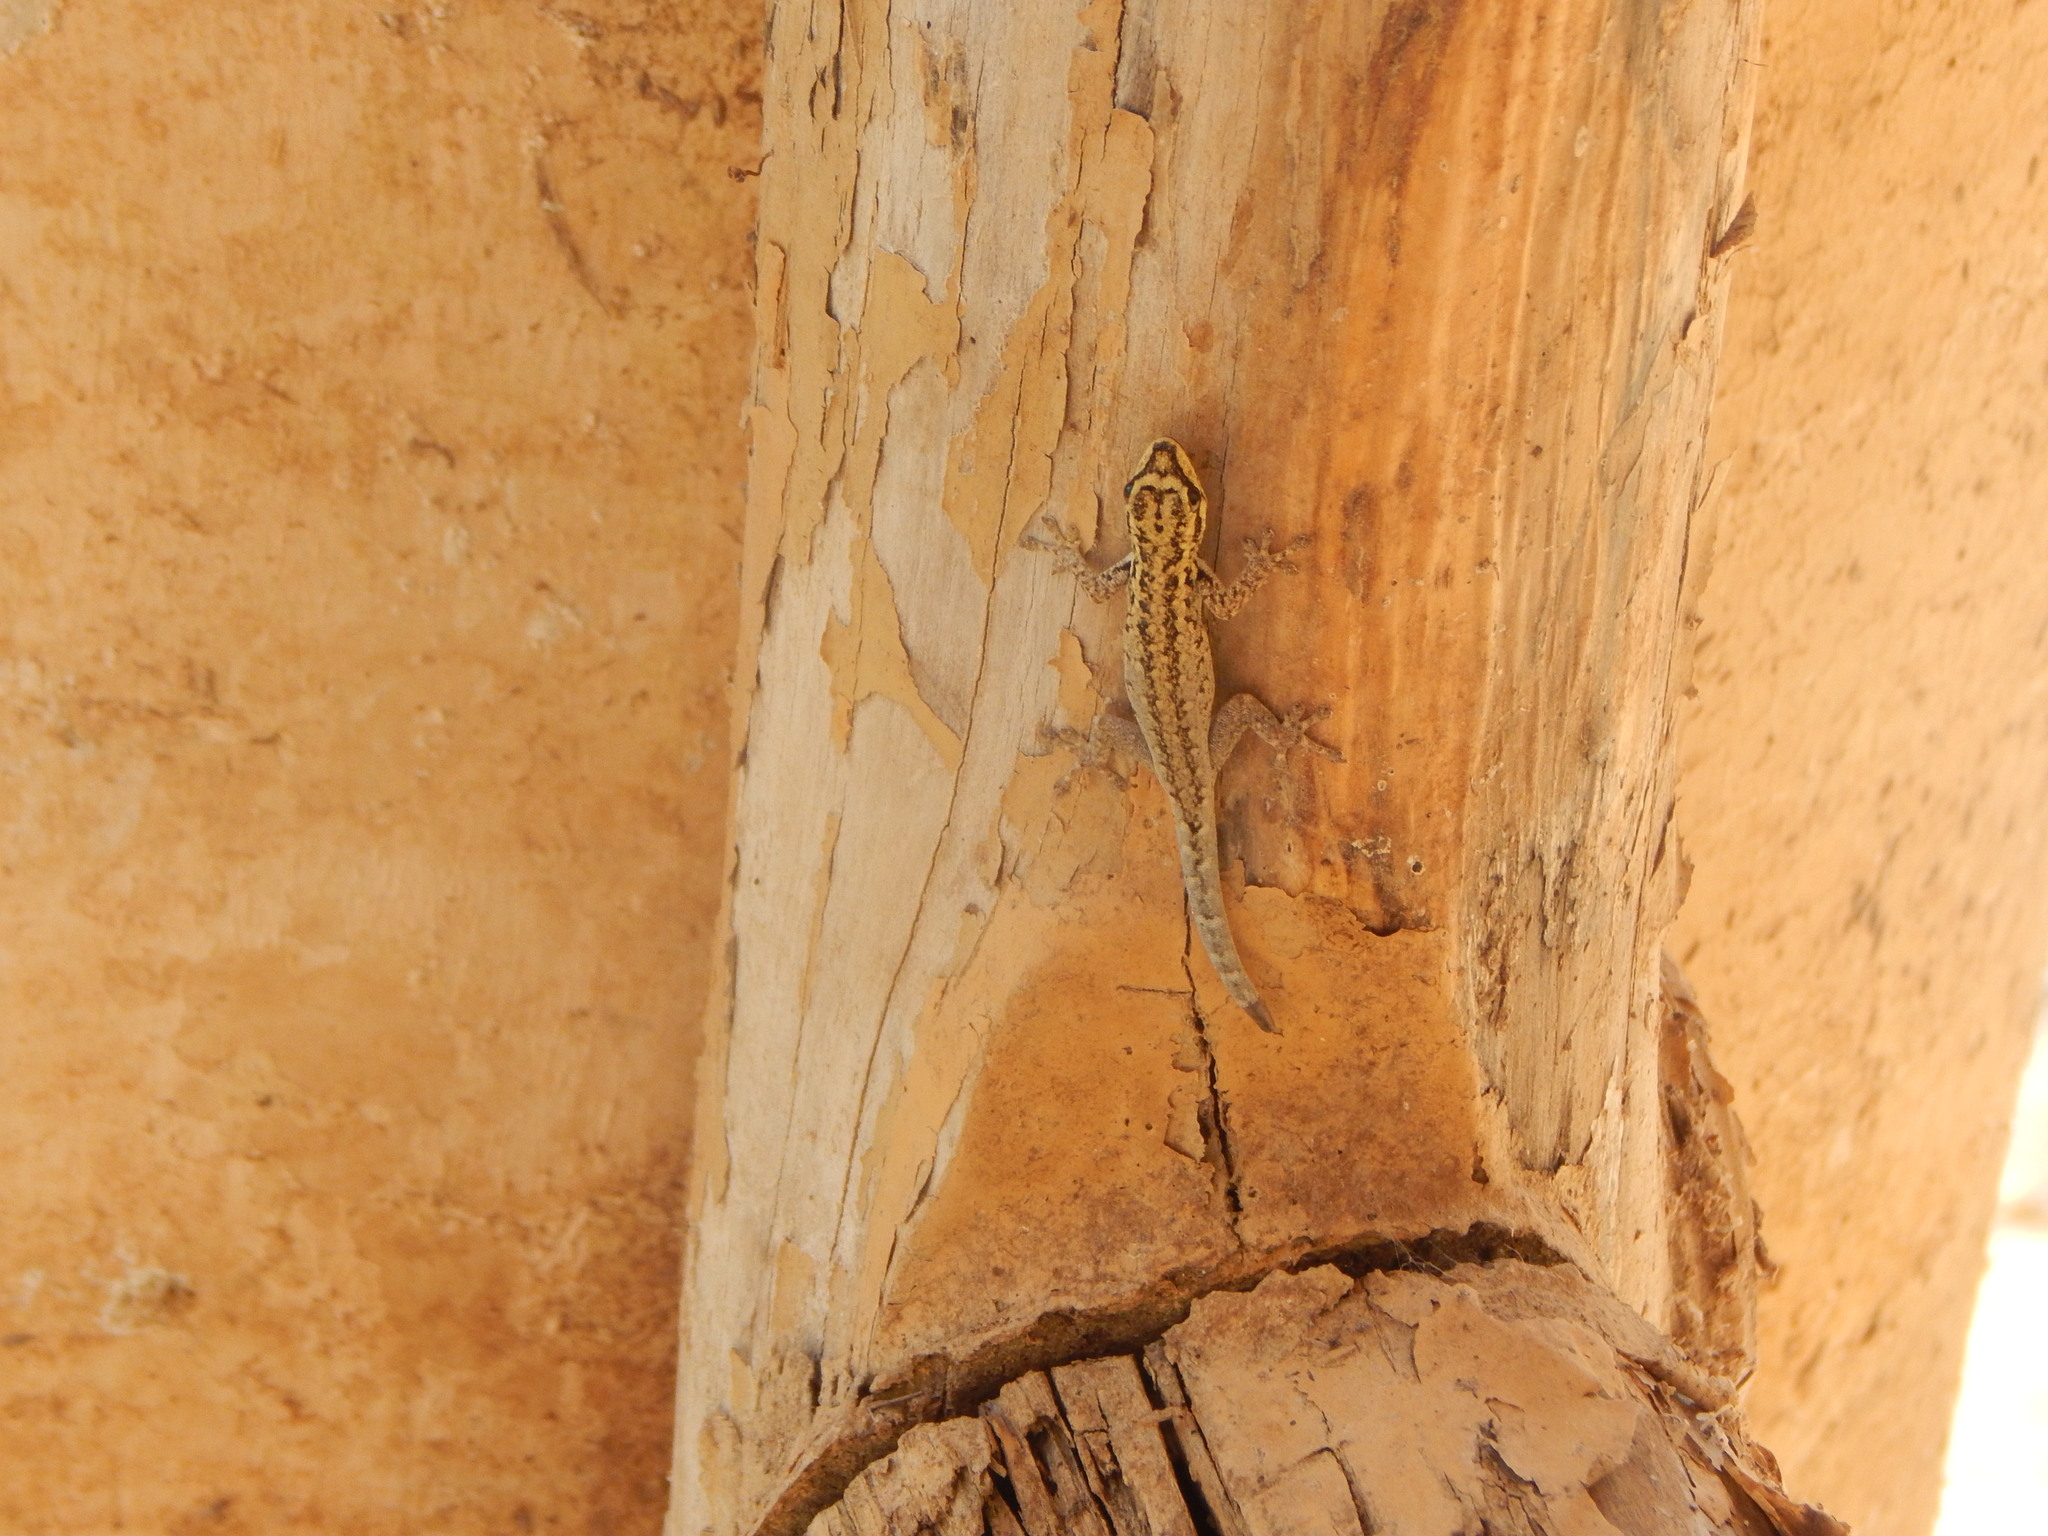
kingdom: Animalia
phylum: Chordata
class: Squamata
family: Gekkonidae
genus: Lygodactylus
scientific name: Lygodactylus picturatus
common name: Painted dwarf gecko
